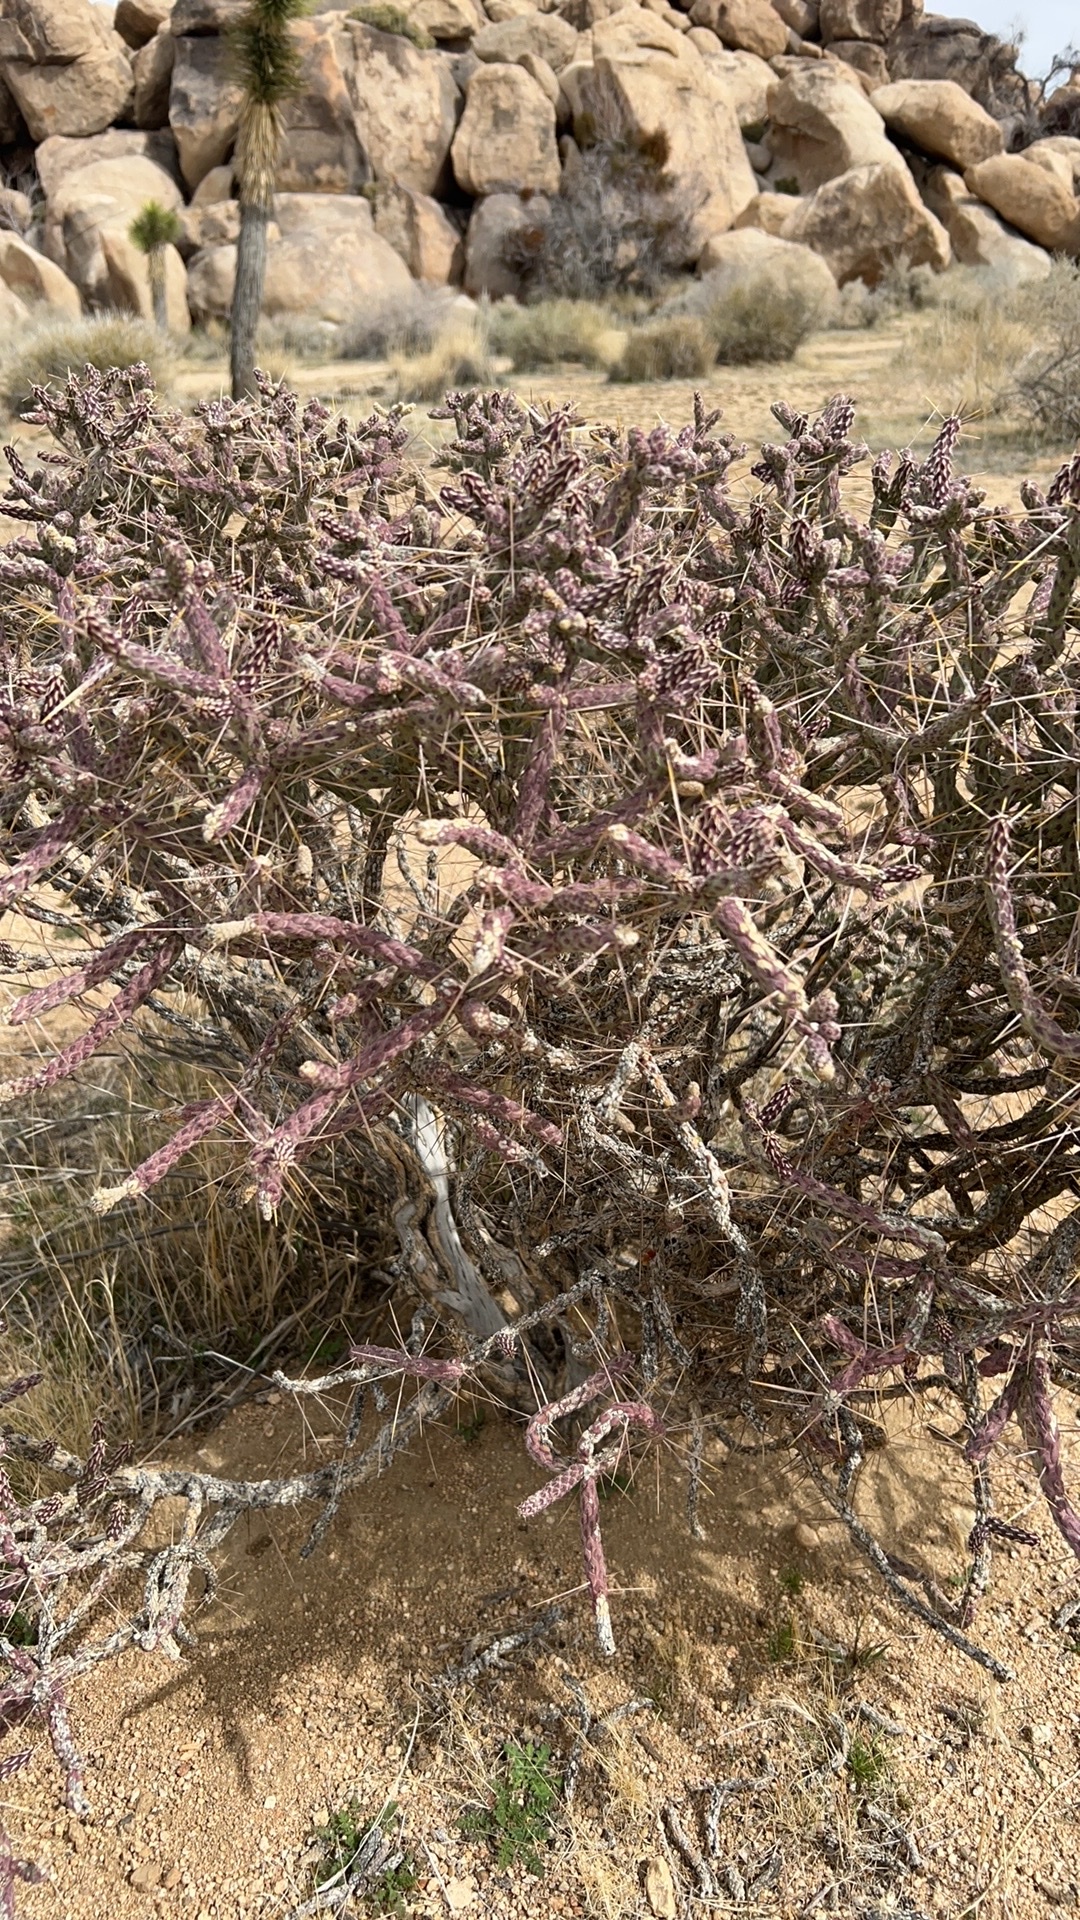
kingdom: Plantae
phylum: Tracheophyta
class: Magnoliopsida
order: Caryophyllales
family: Cactaceae
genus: Cylindropuntia
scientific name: Cylindropuntia ramosissima
